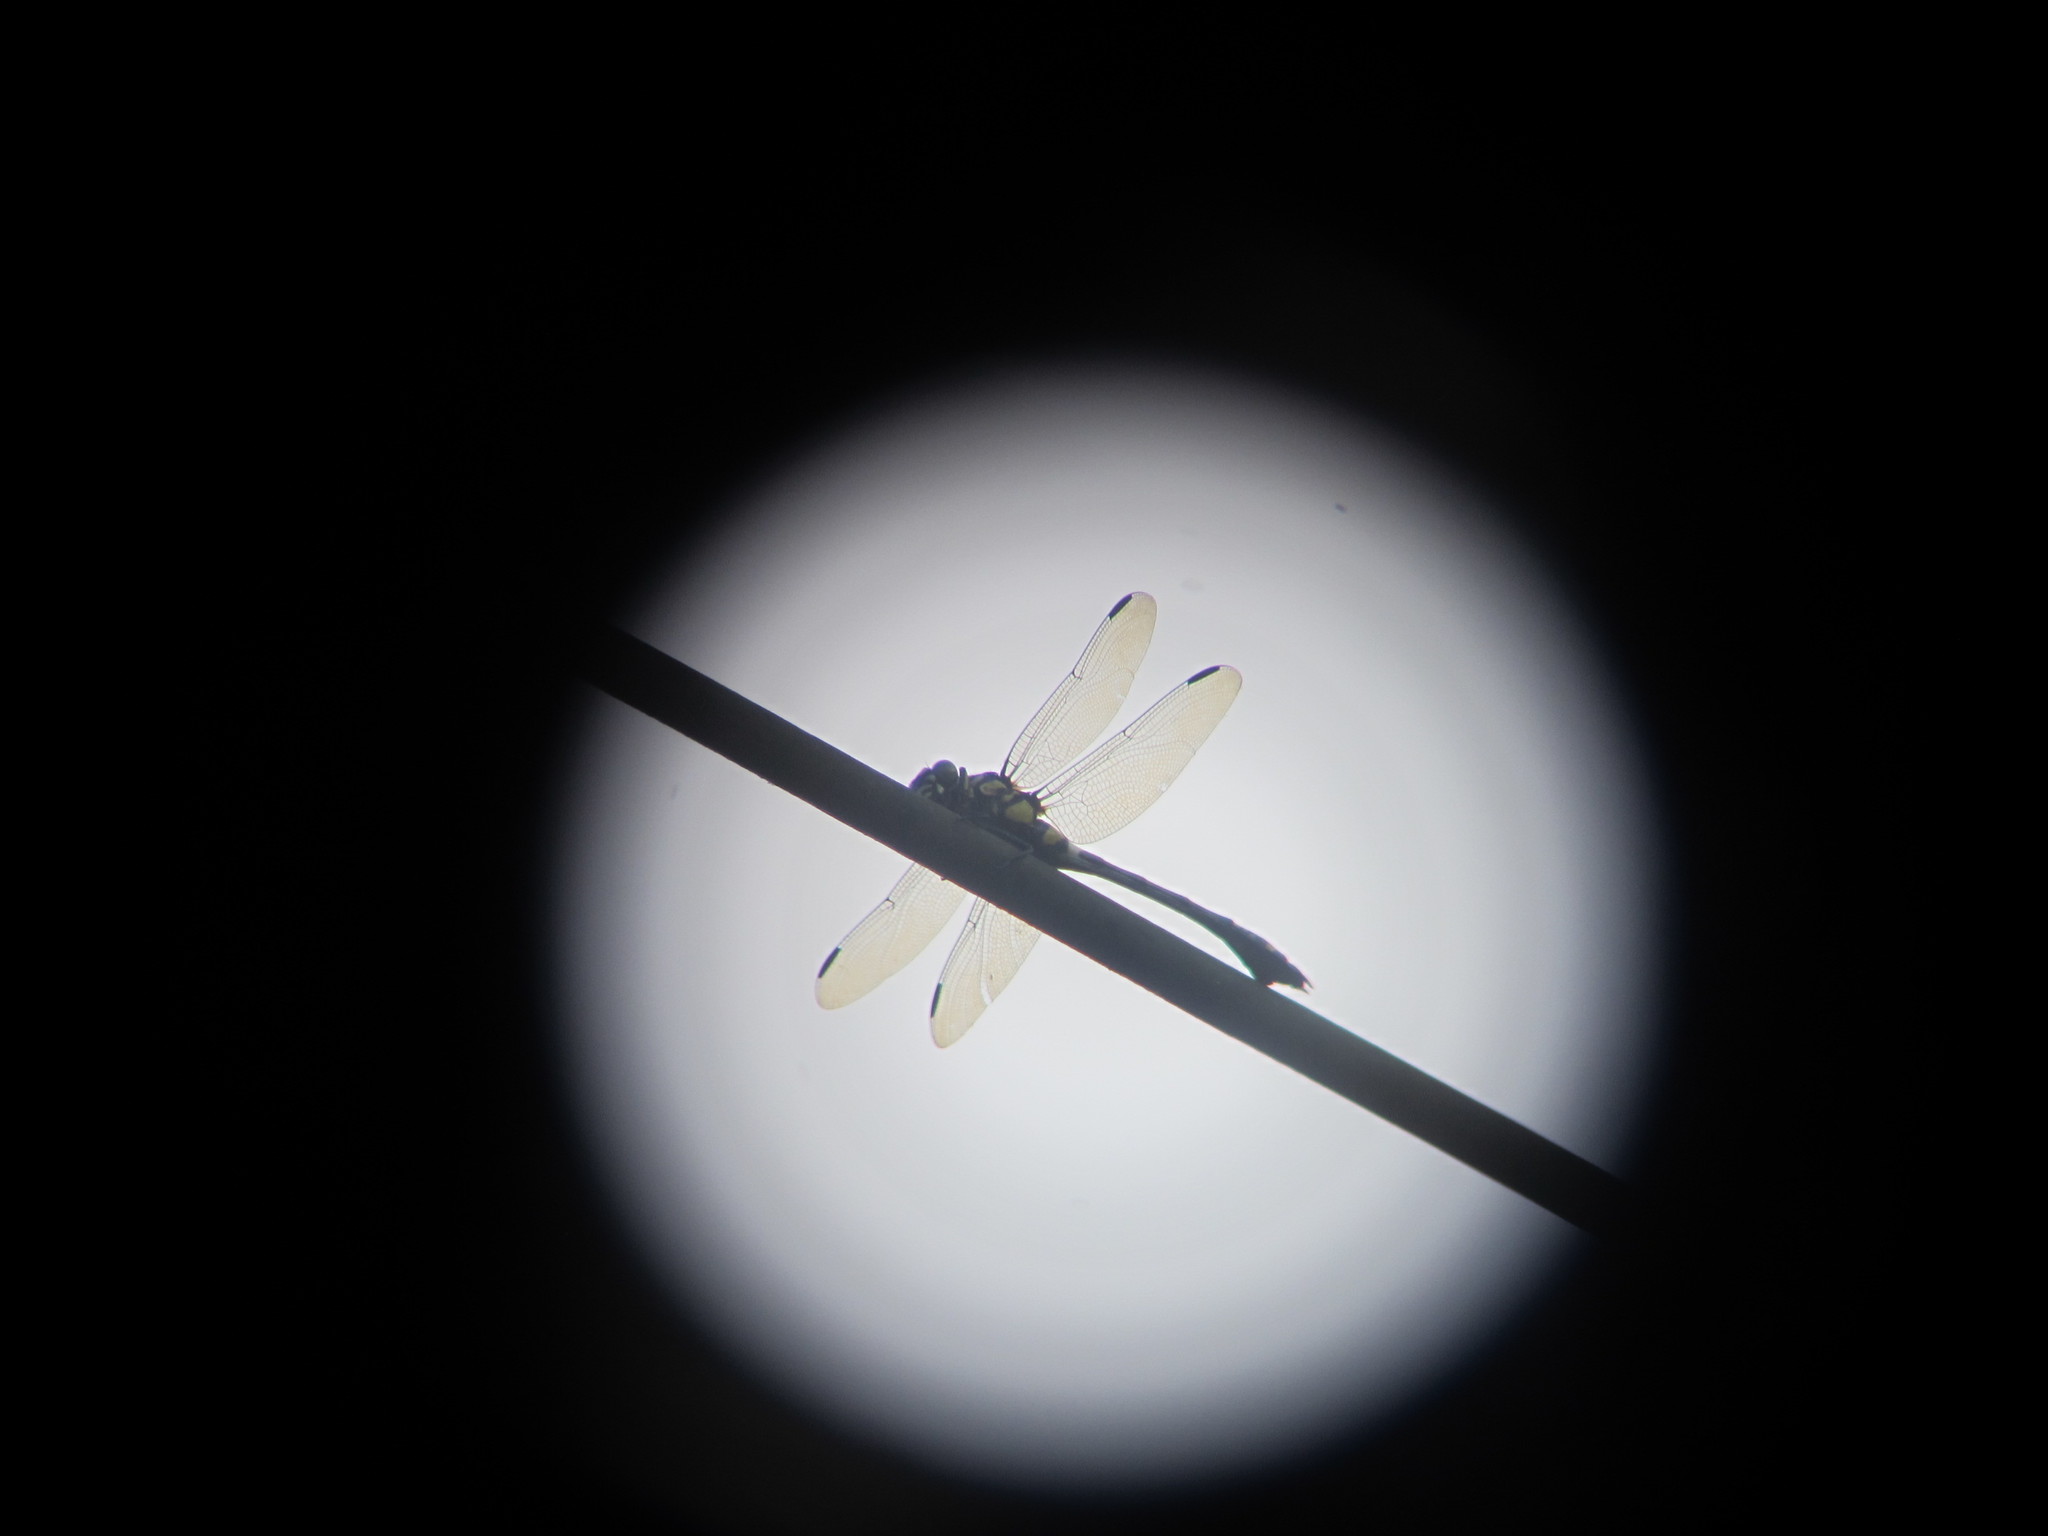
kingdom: Animalia
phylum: Arthropoda
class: Insecta
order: Odonata
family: Gomphidae
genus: Ictinogomphus
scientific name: Ictinogomphus rapax
